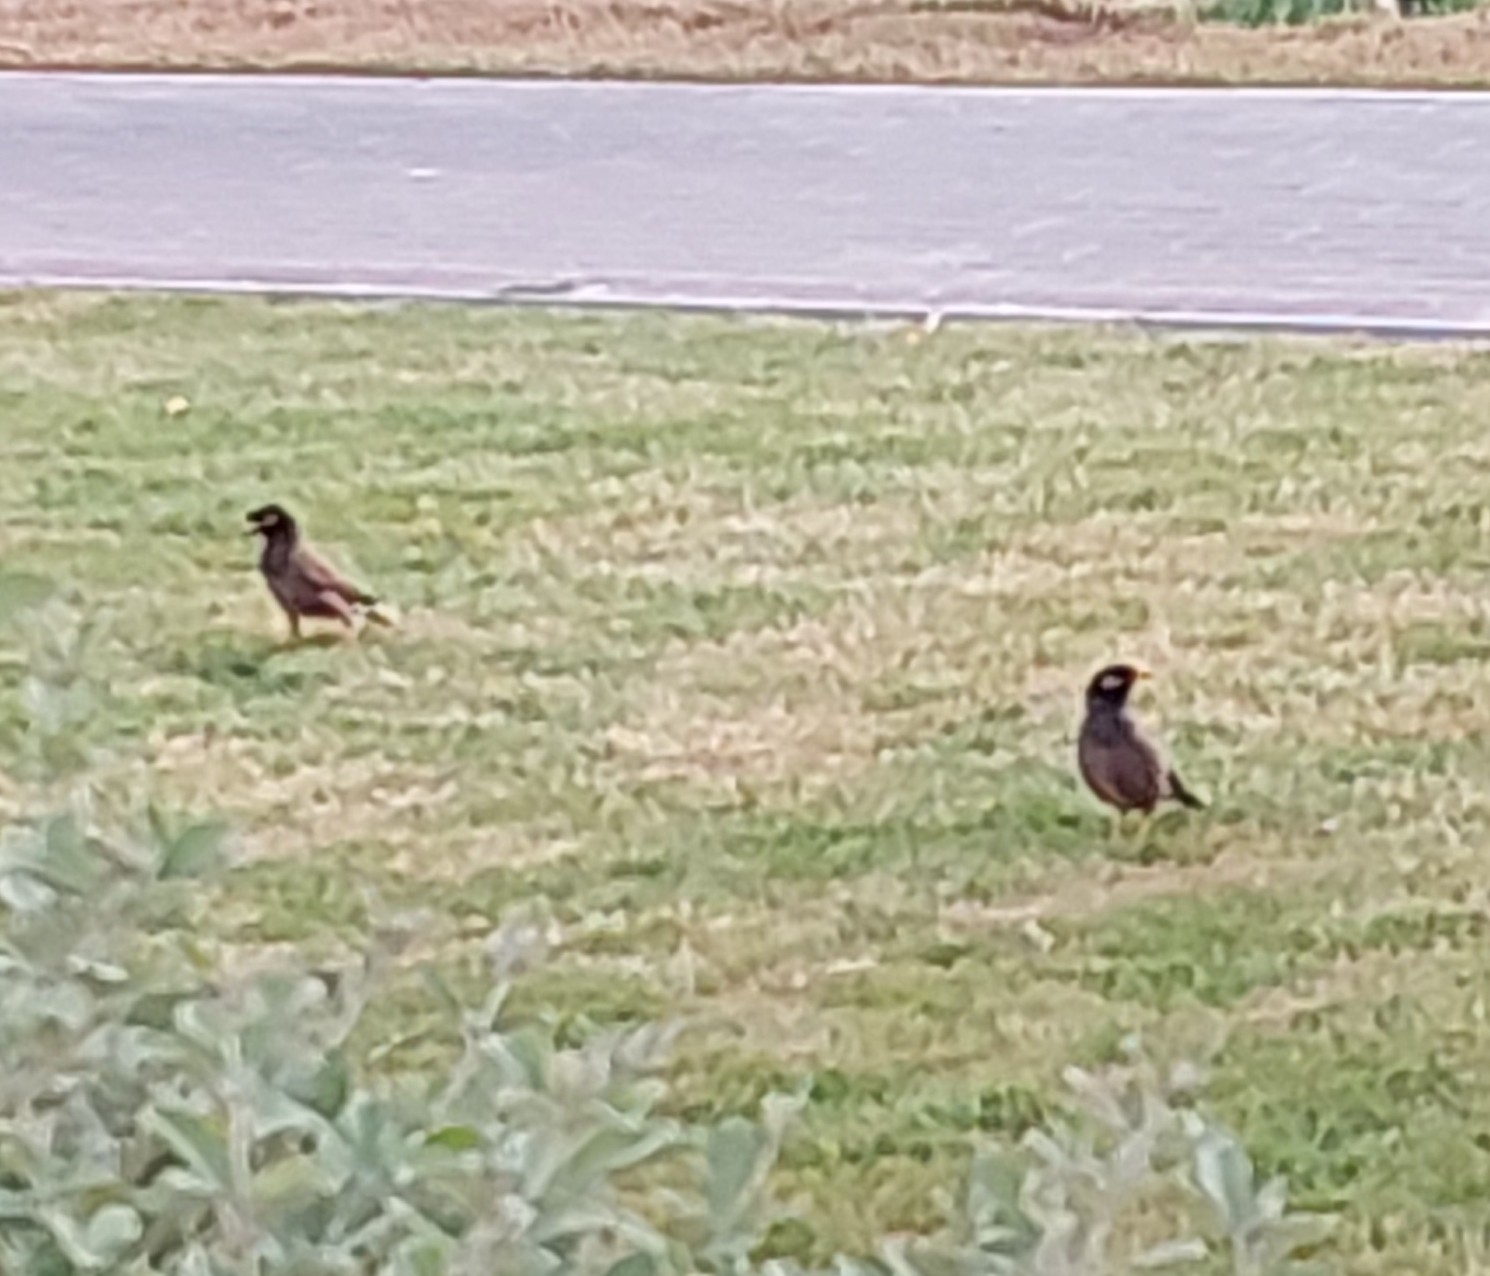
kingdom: Animalia
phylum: Chordata
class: Aves
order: Passeriformes
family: Sturnidae
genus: Acridotheres
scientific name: Acridotheres tristis
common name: Common myna
